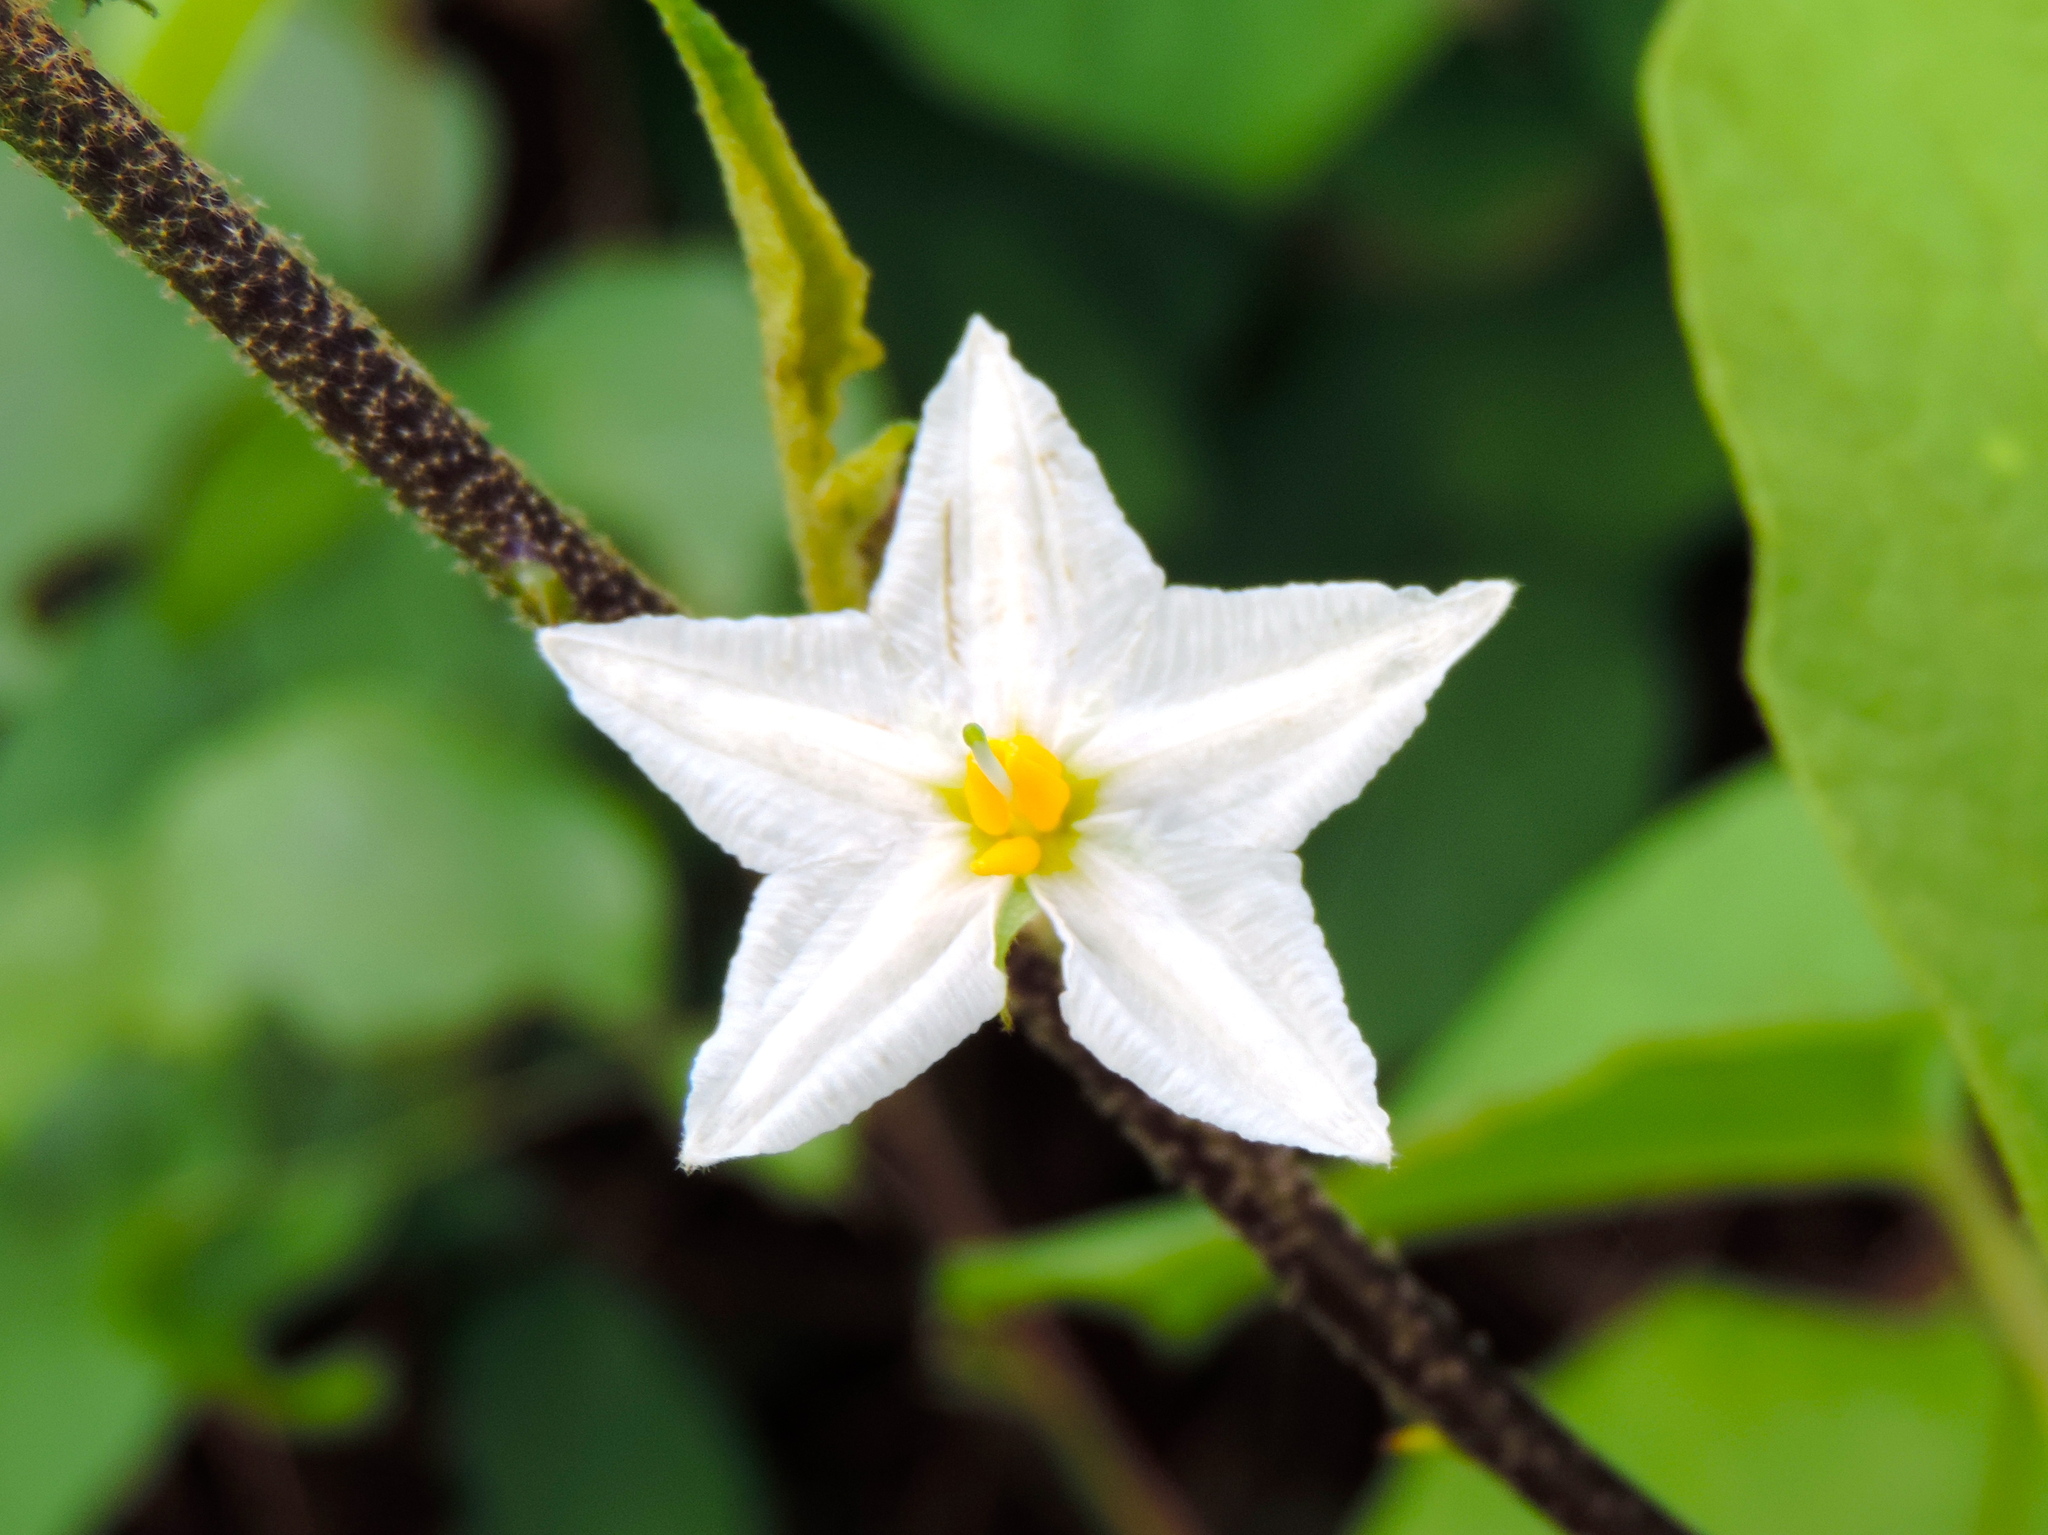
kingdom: Plantae
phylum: Tracheophyta
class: Magnoliopsida
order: Solanales
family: Solanaceae
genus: Solanum
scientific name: Solanum
